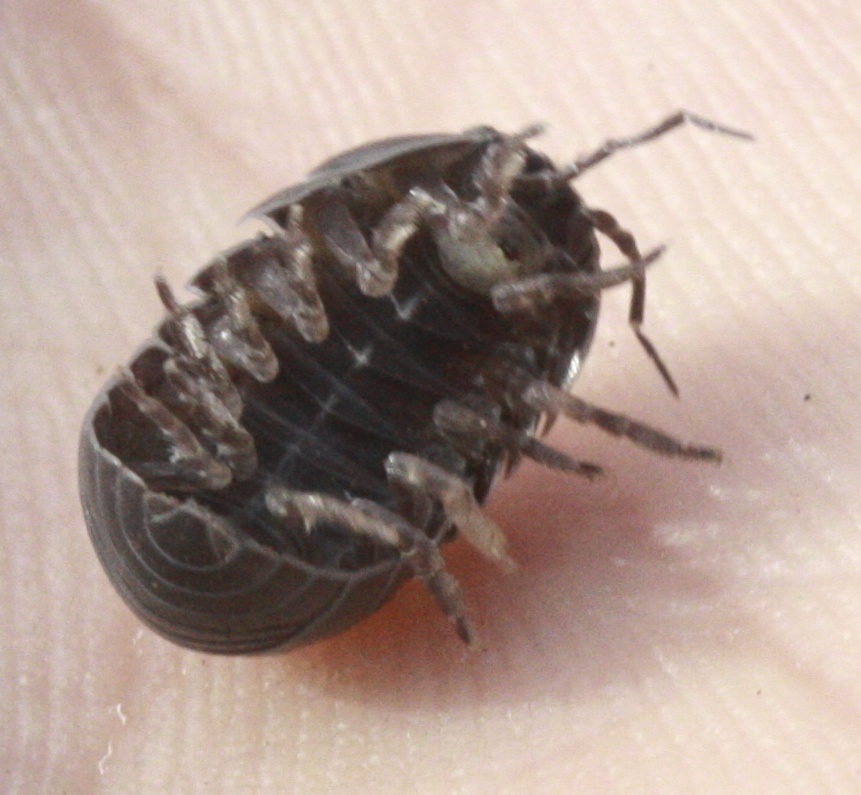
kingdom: Animalia
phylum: Arthropoda
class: Malacostraca
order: Isopoda
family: Armadillidiidae
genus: Armadillidium
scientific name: Armadillidium vulgare
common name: Common pill woodlouse
